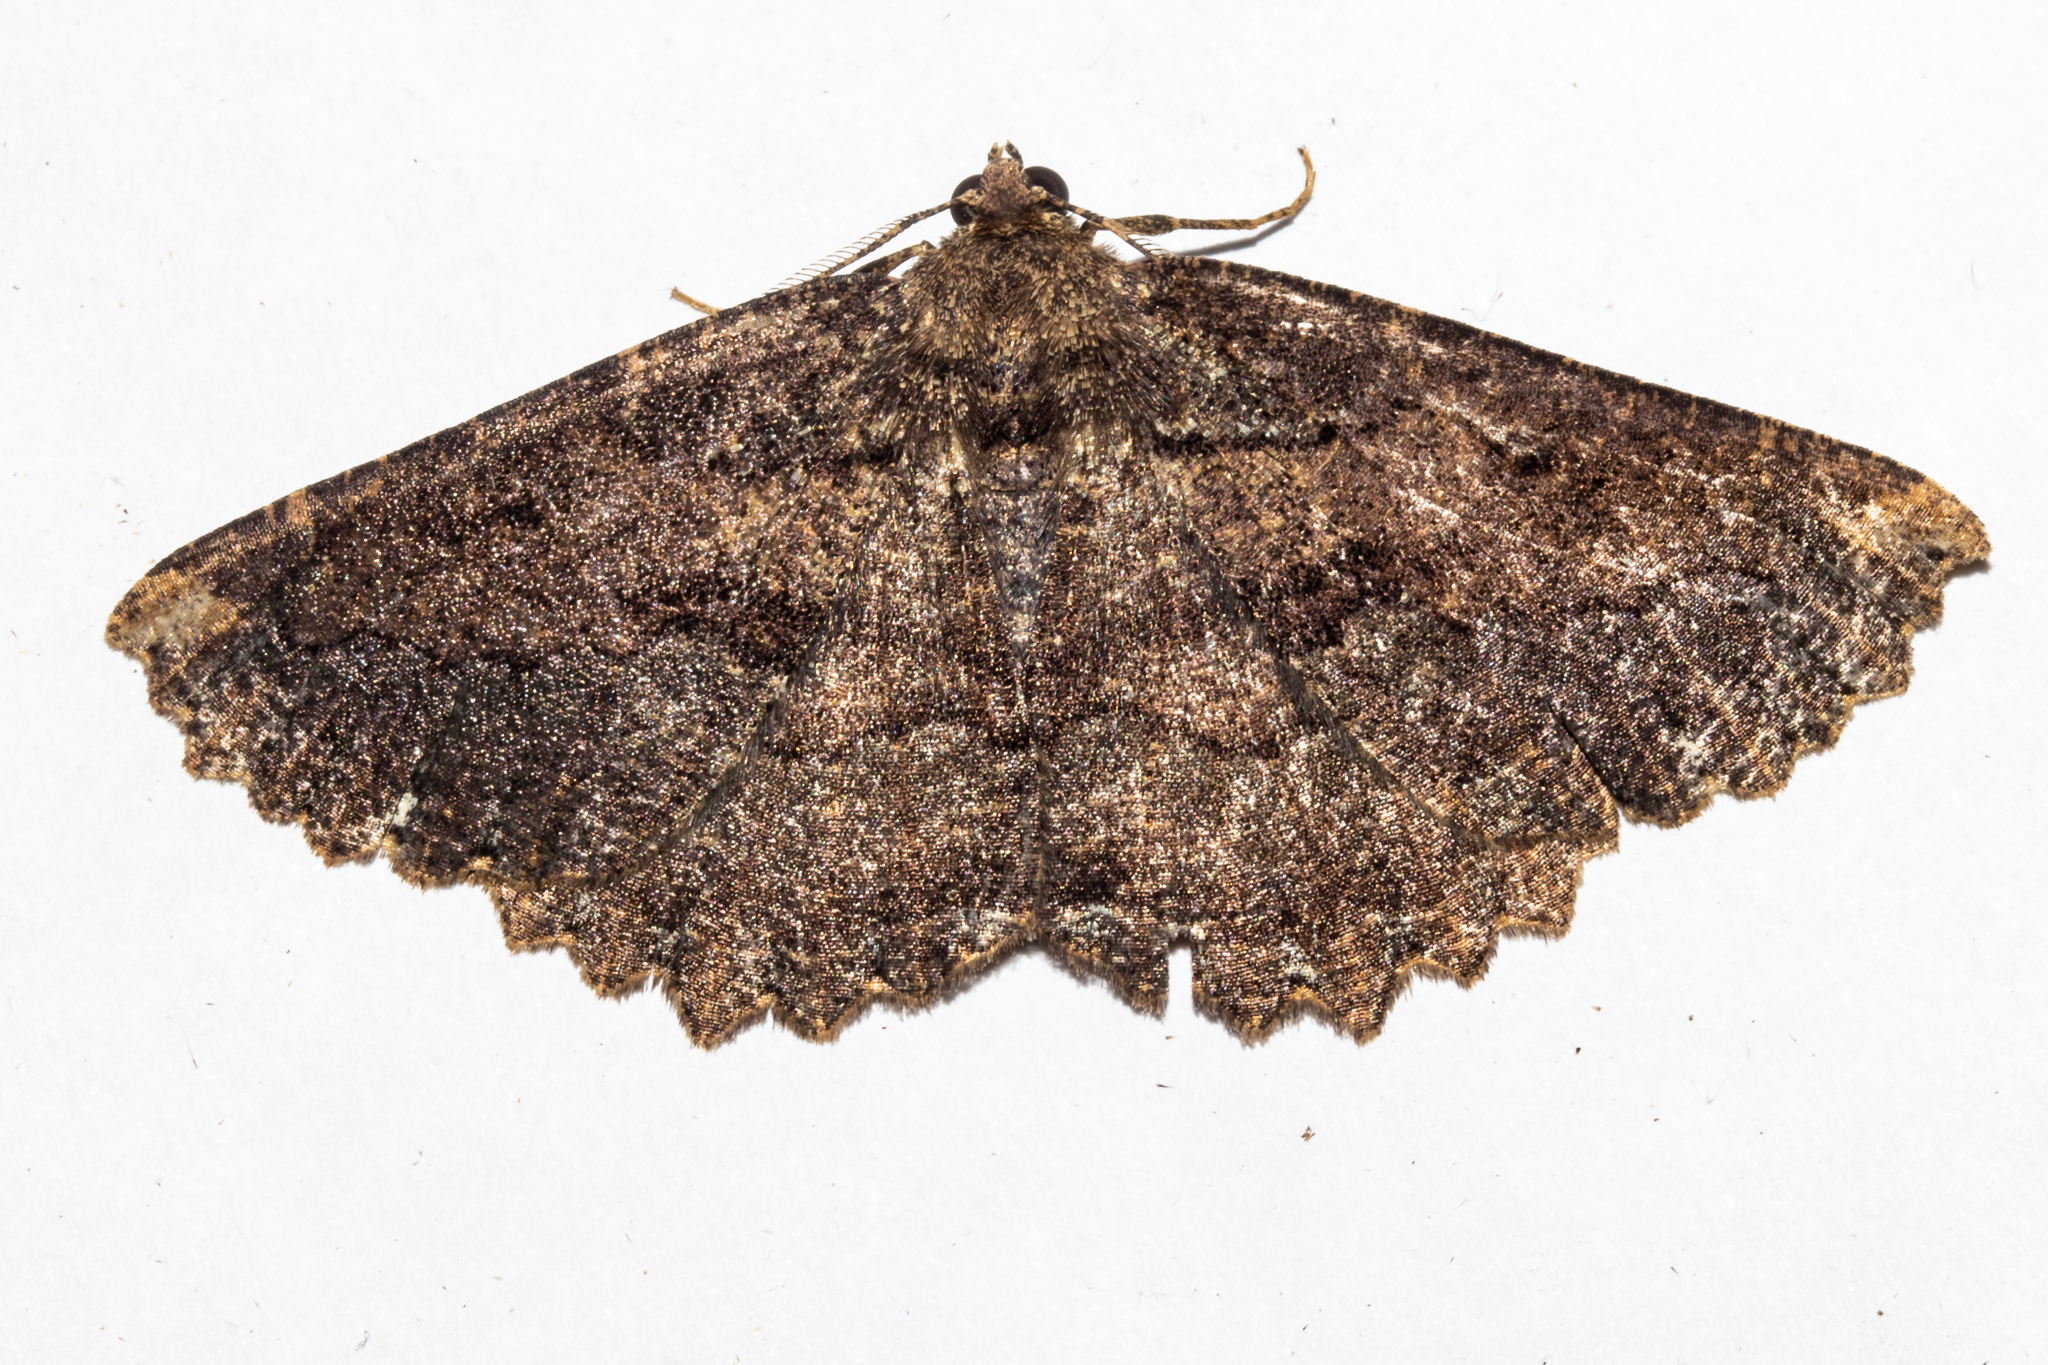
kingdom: Animalia
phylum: Arthropoda
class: Insecta
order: Lepidoptera
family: Geometridae
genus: Gellonia
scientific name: Gellonia dejectaria
